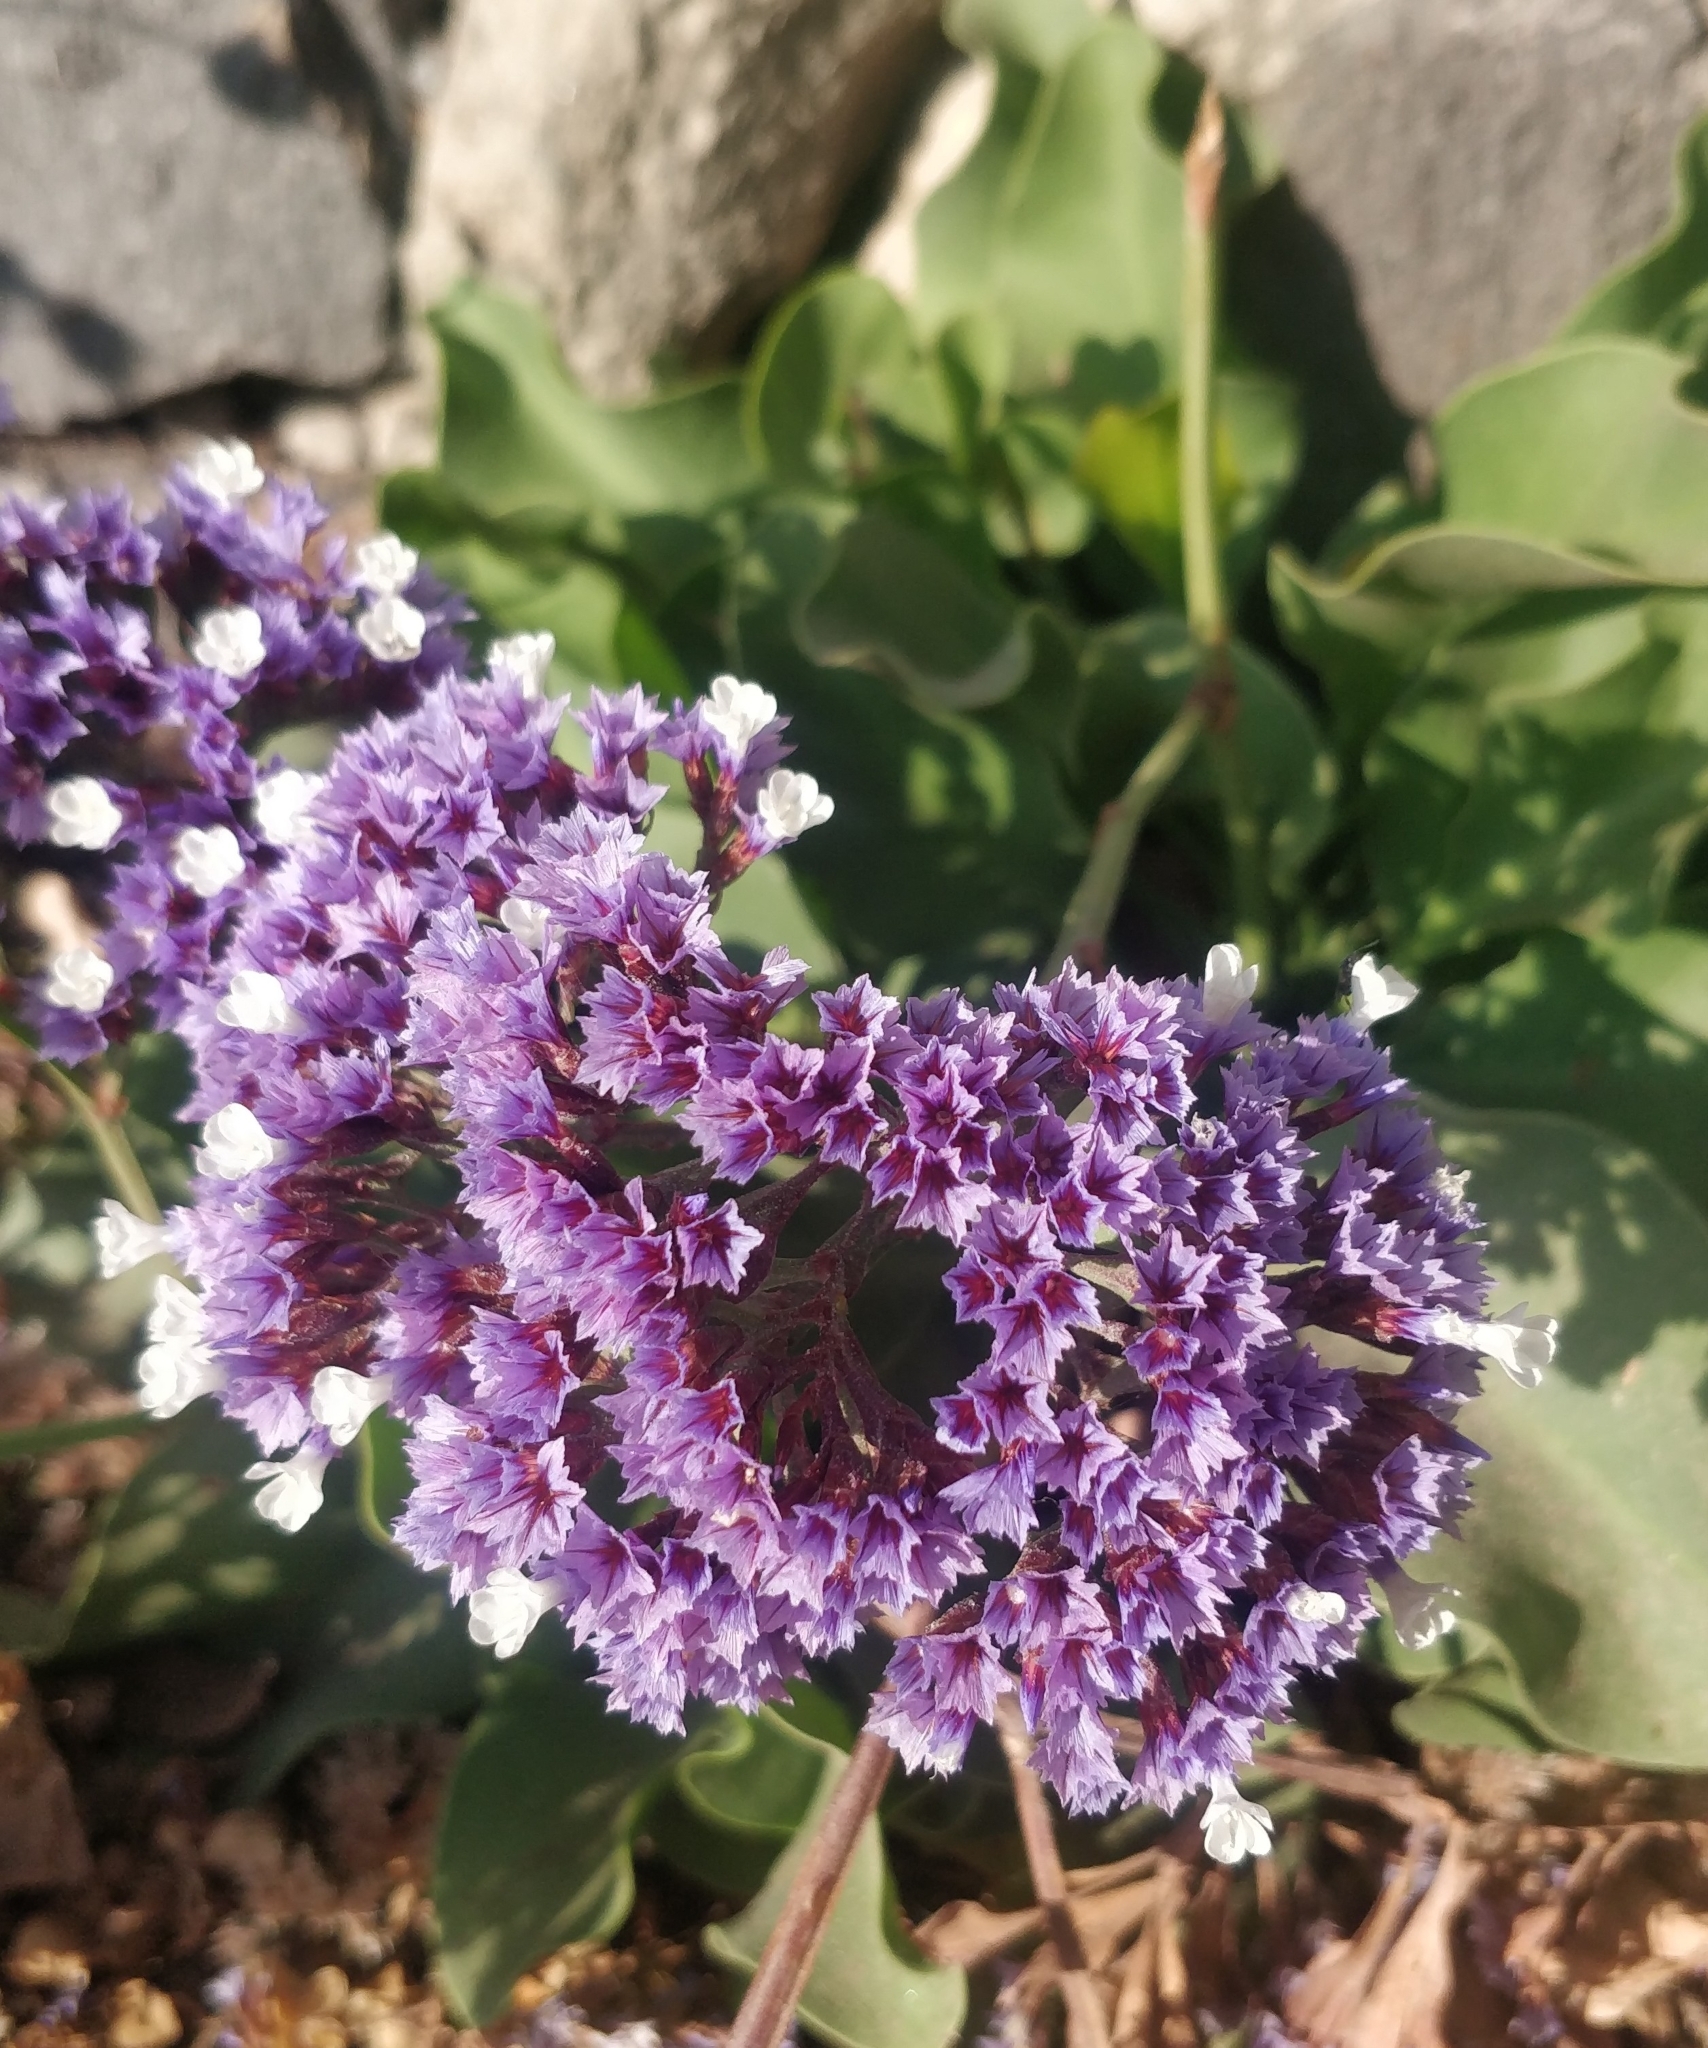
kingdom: Plantae
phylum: Tracheophyta
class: Magnoliopsida
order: Caryophyllales
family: Plumbaginaceae
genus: Limonium
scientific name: Limonium arboreum
